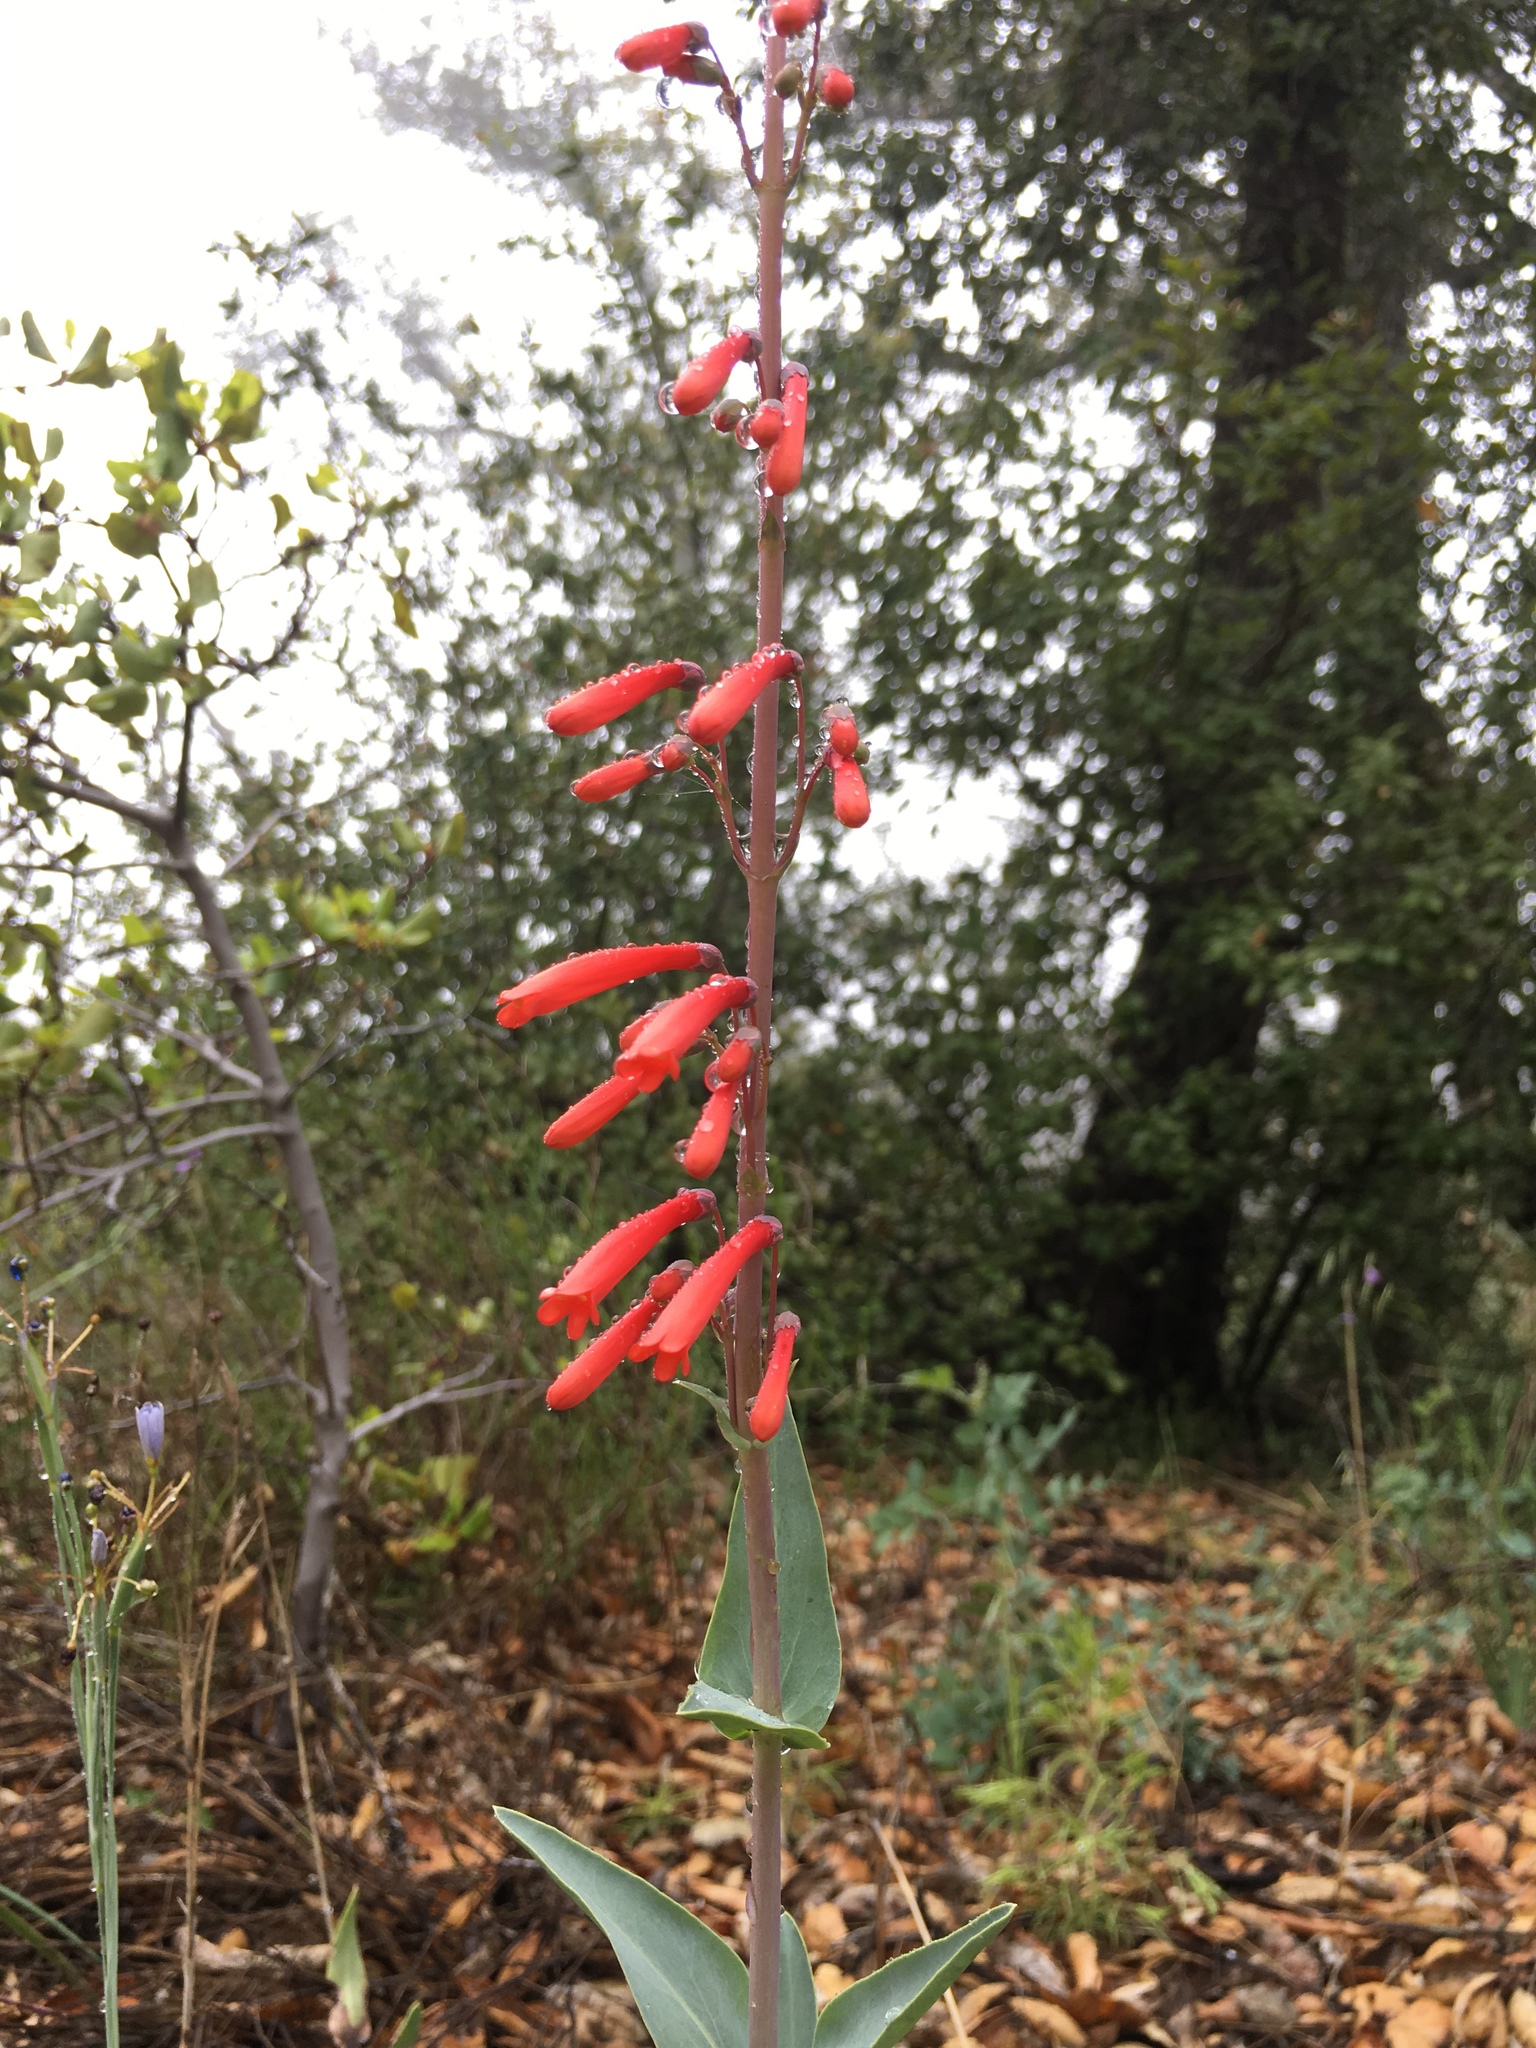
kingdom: Plantae
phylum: Tracheophyta
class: Magnoliopsida
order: Lamiales
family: Plantaginaceae
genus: Penstemon
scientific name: Penstemon centranthifolius
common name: Scarlet bugler
